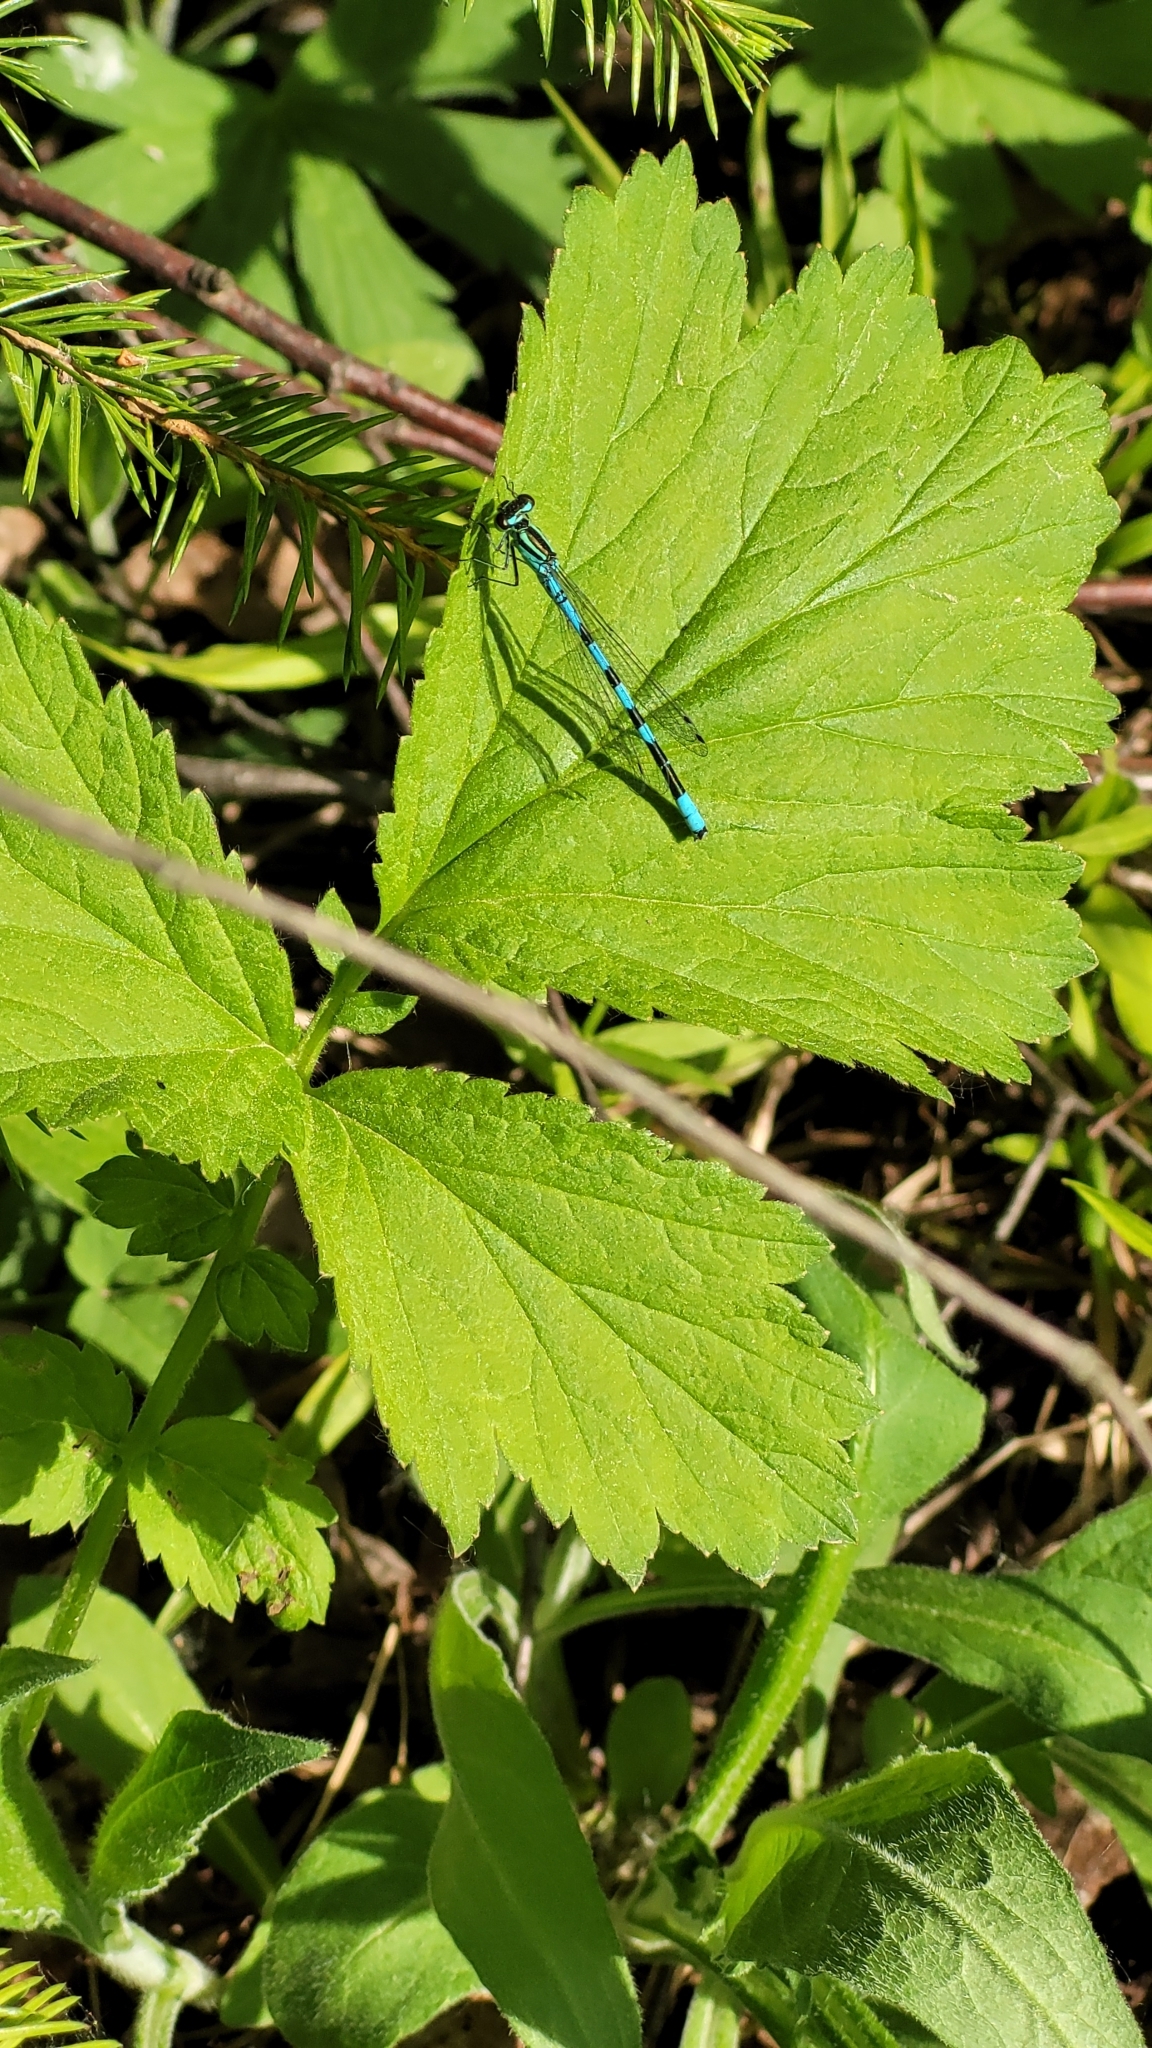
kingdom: Animalia
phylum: Arthropoda
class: Insecta
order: Odonata
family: Coenagrionidae
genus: Coenagrion
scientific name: Coenagrion hastulatum
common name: Spearhead bluet
